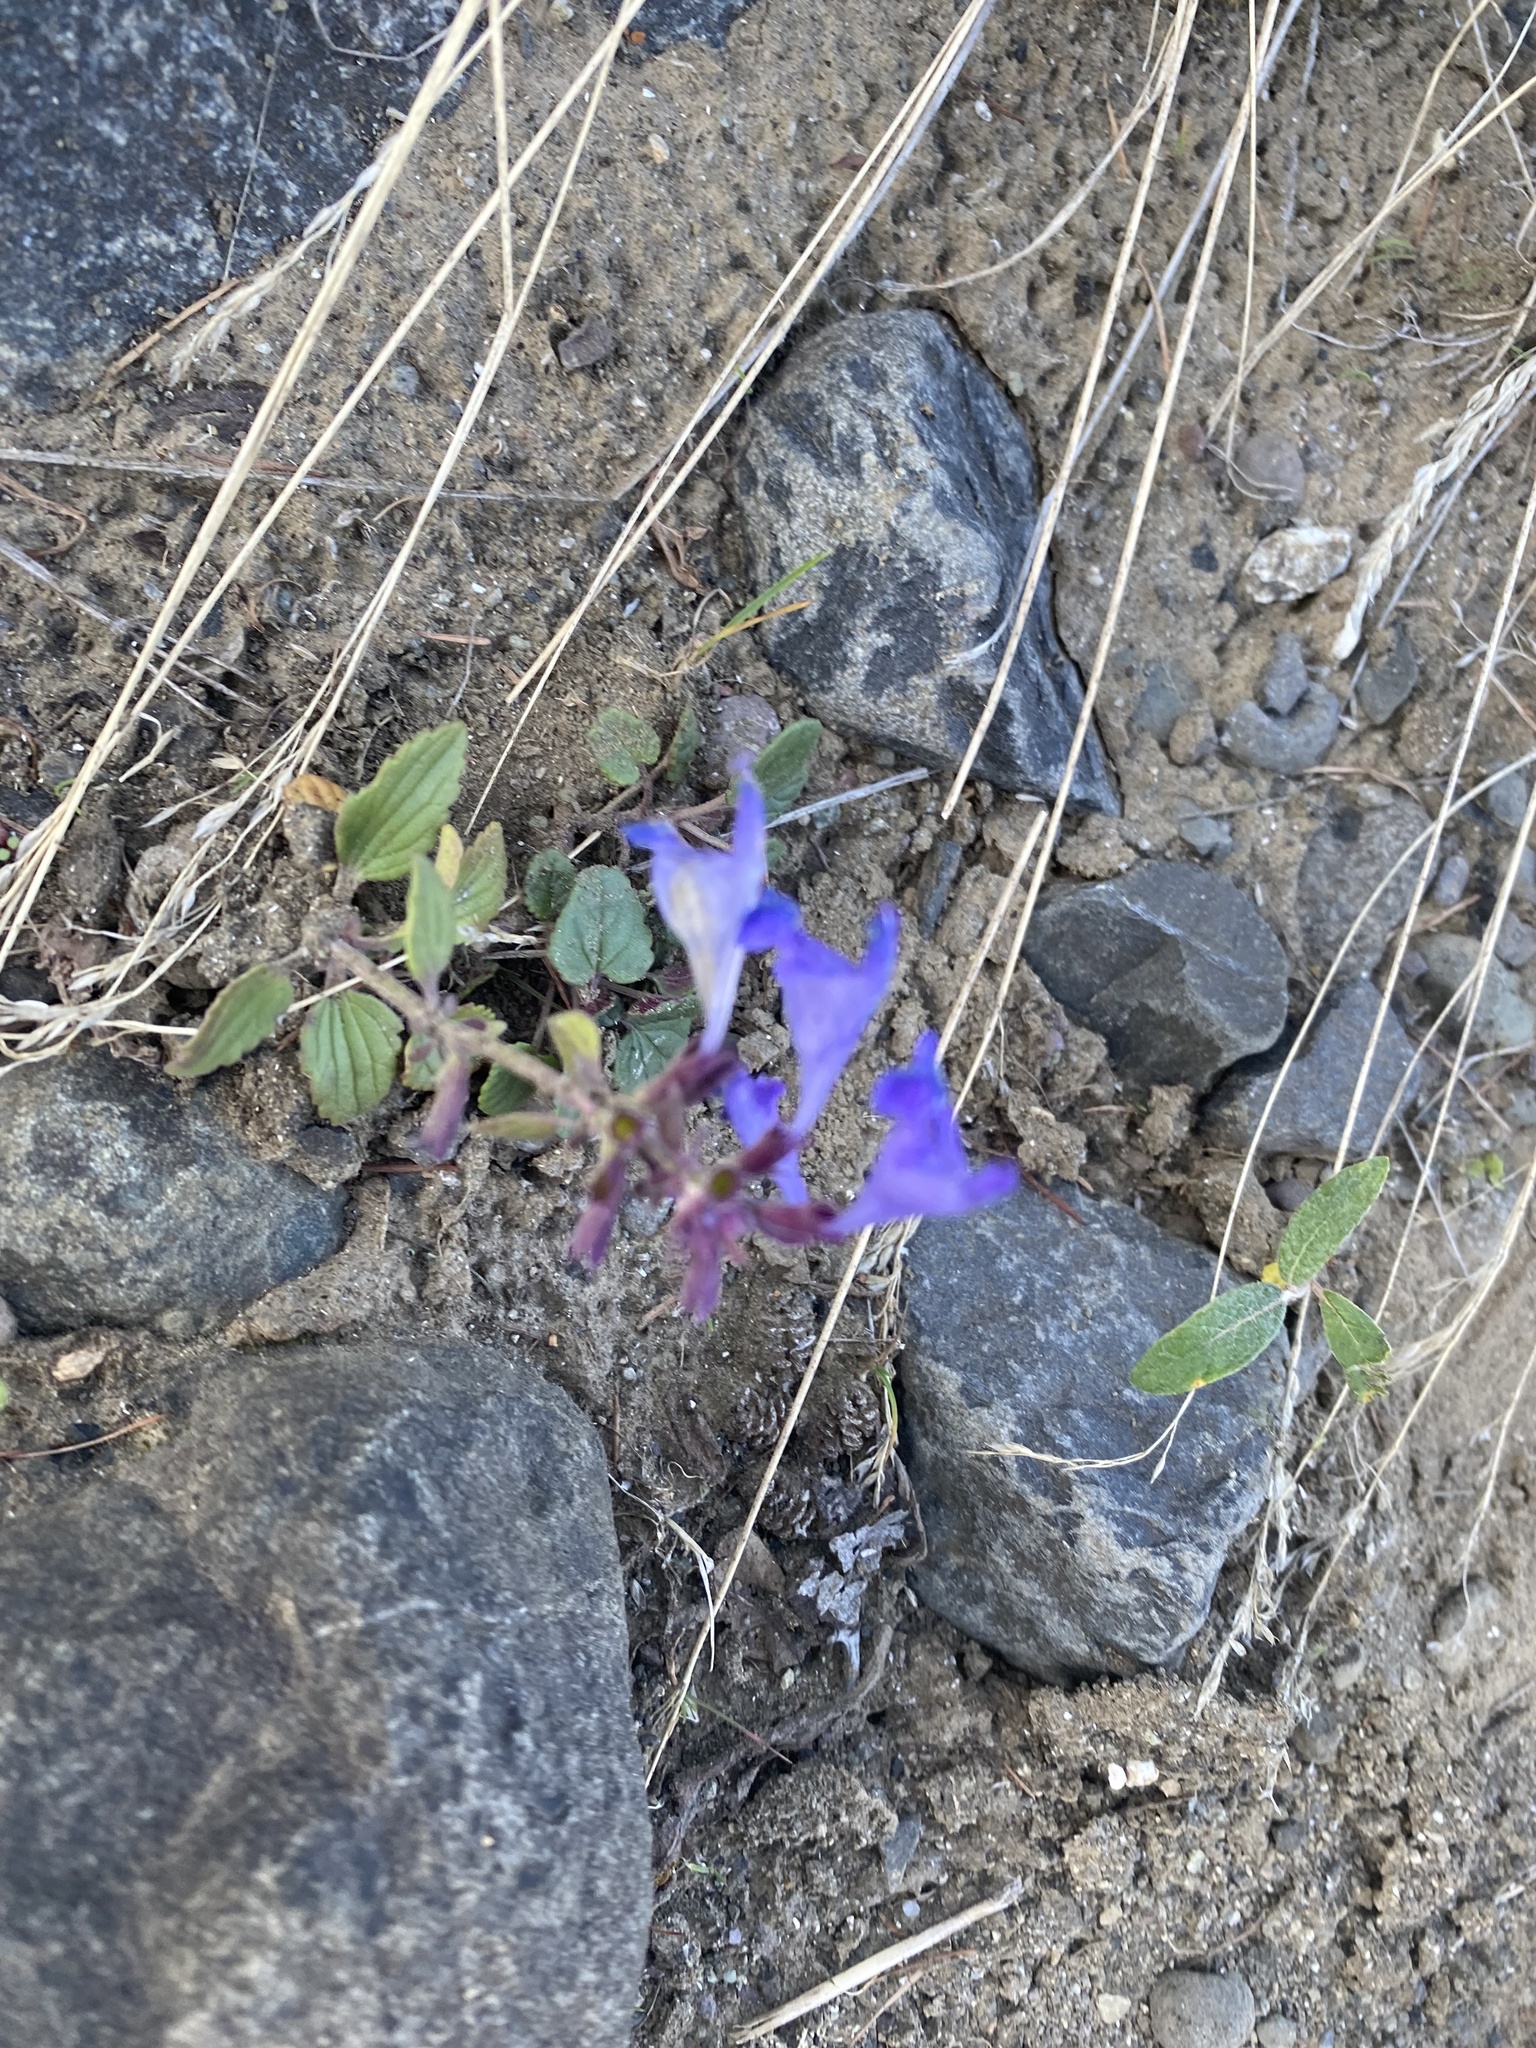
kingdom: Plantae
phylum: Tracheophyta
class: Magnoliopsida
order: Lamiales
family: Lamiaceae
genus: Dracocephalum
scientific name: Dracocephalum nutans
